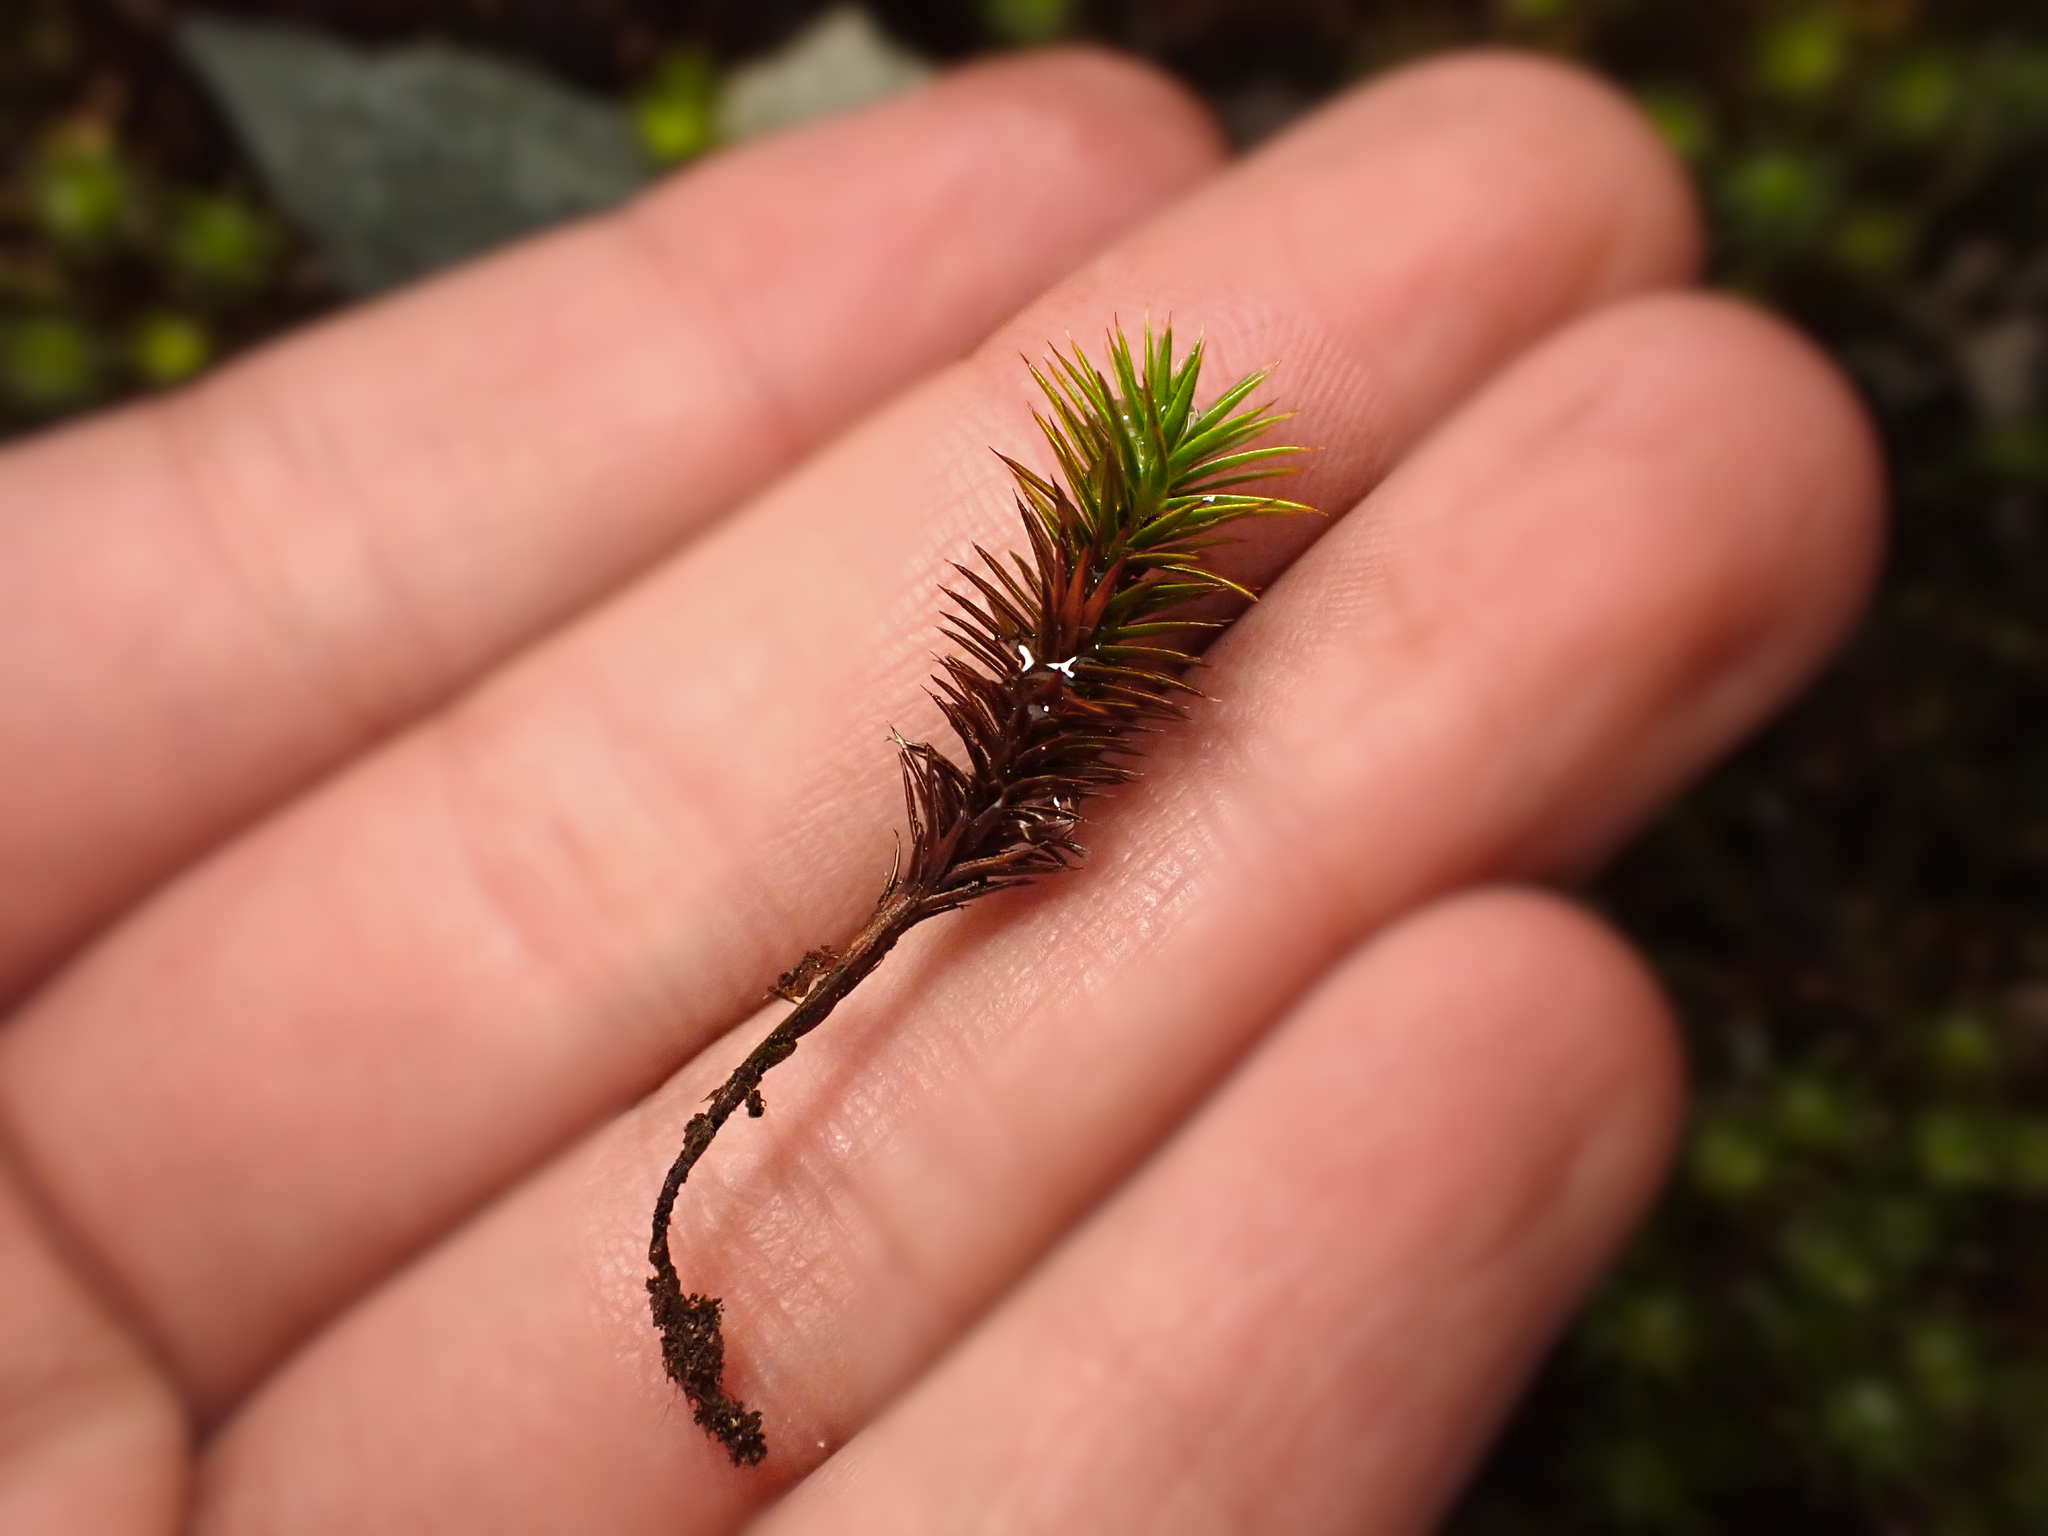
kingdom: Plantae
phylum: Bryophyta
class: Polytrichopsida
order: Polytrichales
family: Polytrichaceae
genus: Polytrichum
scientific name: Polytrichum juniperinum
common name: Juniper haircap moss
